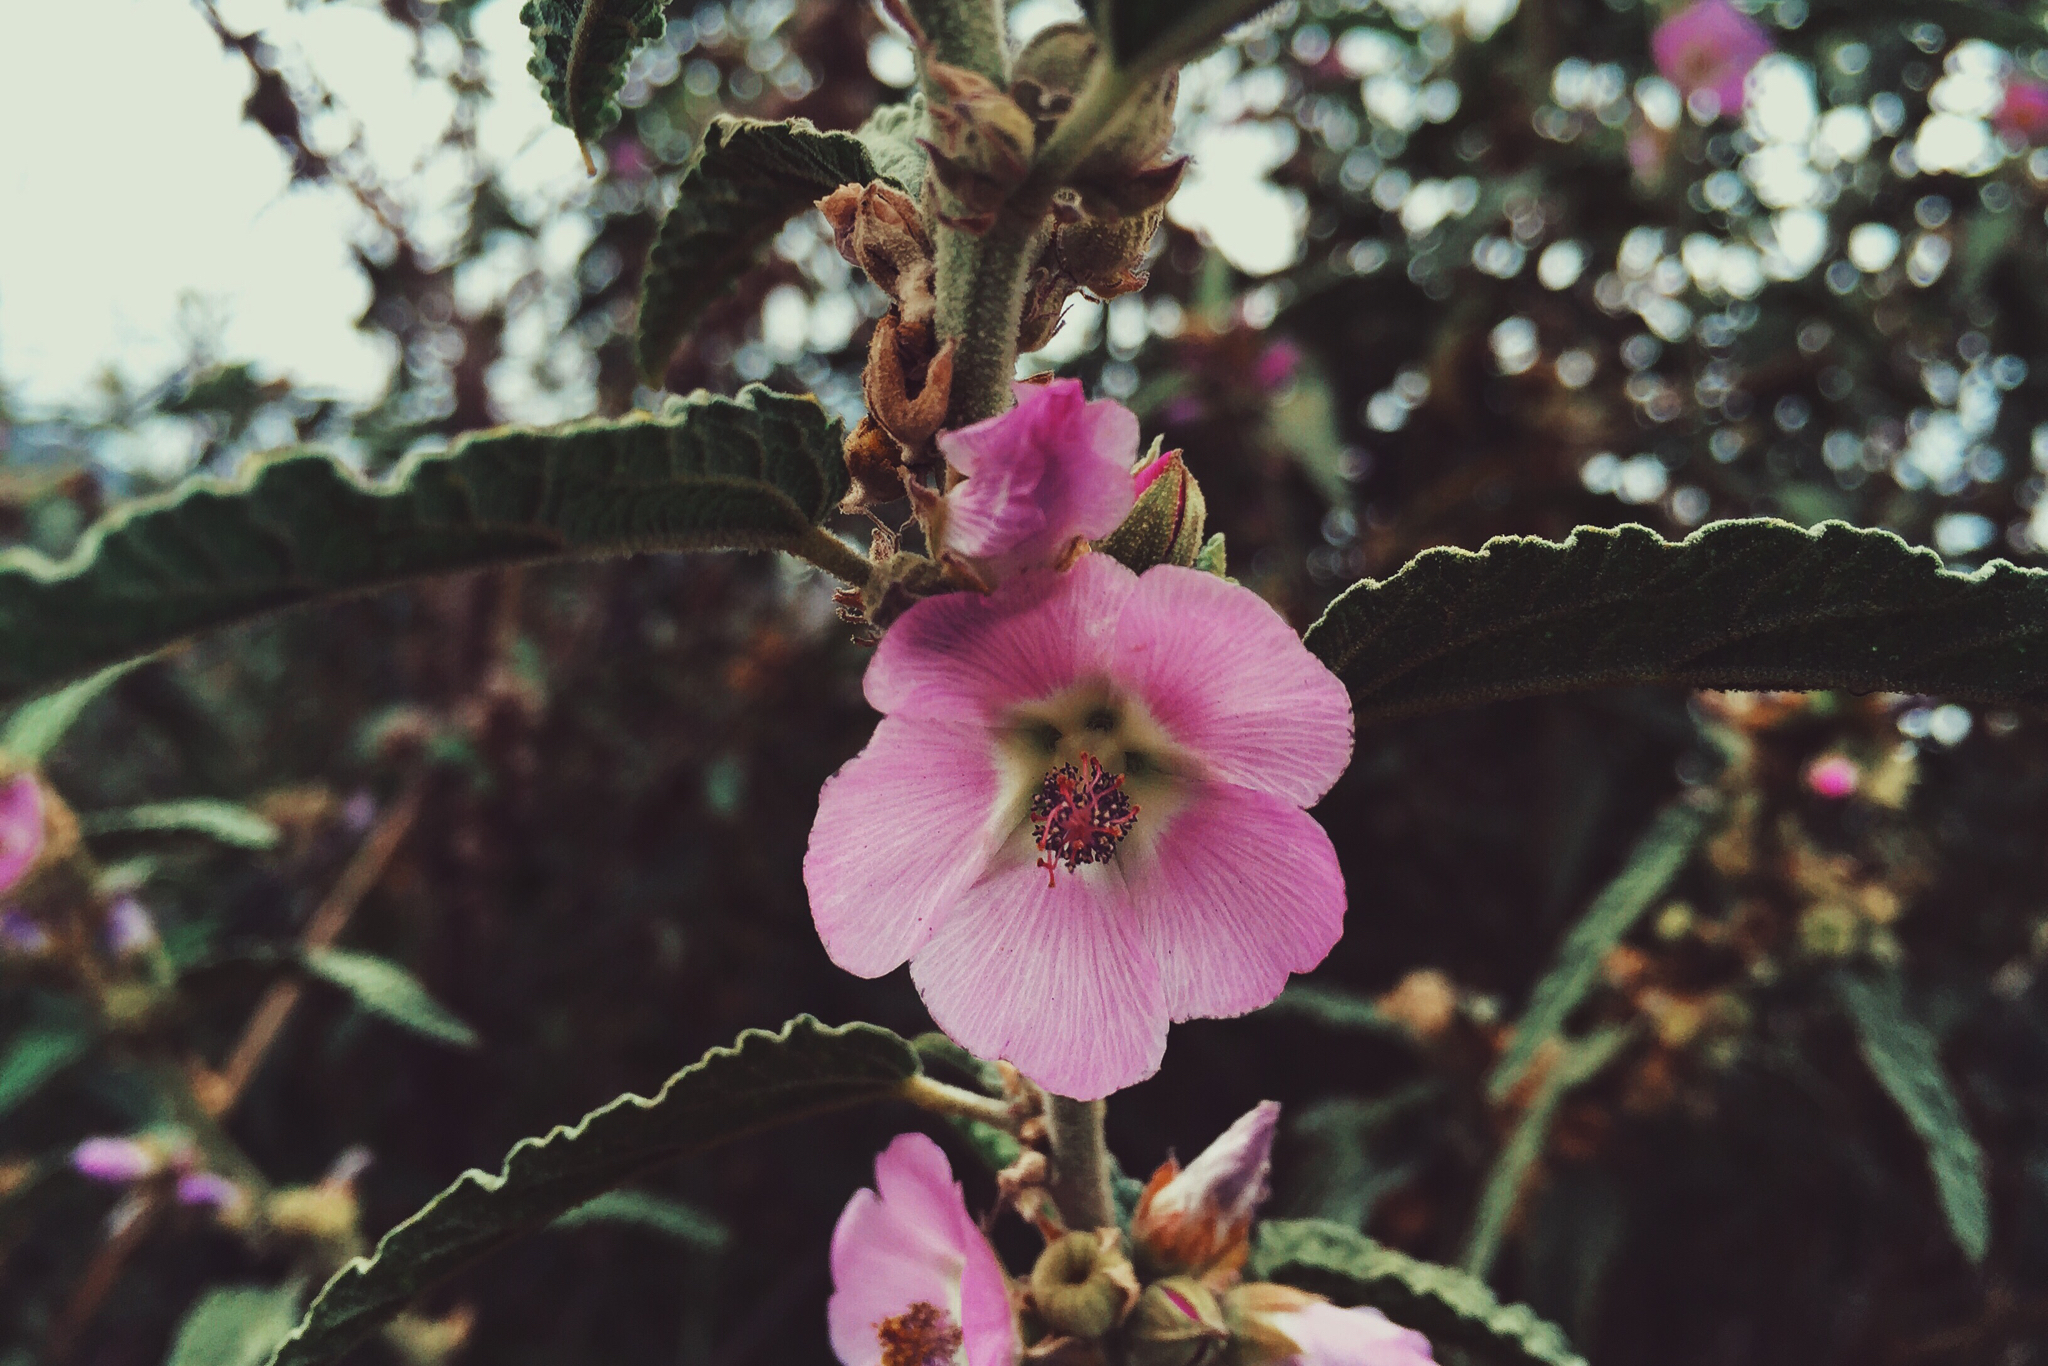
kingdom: Plantae
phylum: Tracheophyta
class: Magnoliopsida
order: Malvales
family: Malvaceae
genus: Sphaeralcea
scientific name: Sphaeralcea angustifolia
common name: Copper globe-mallow
